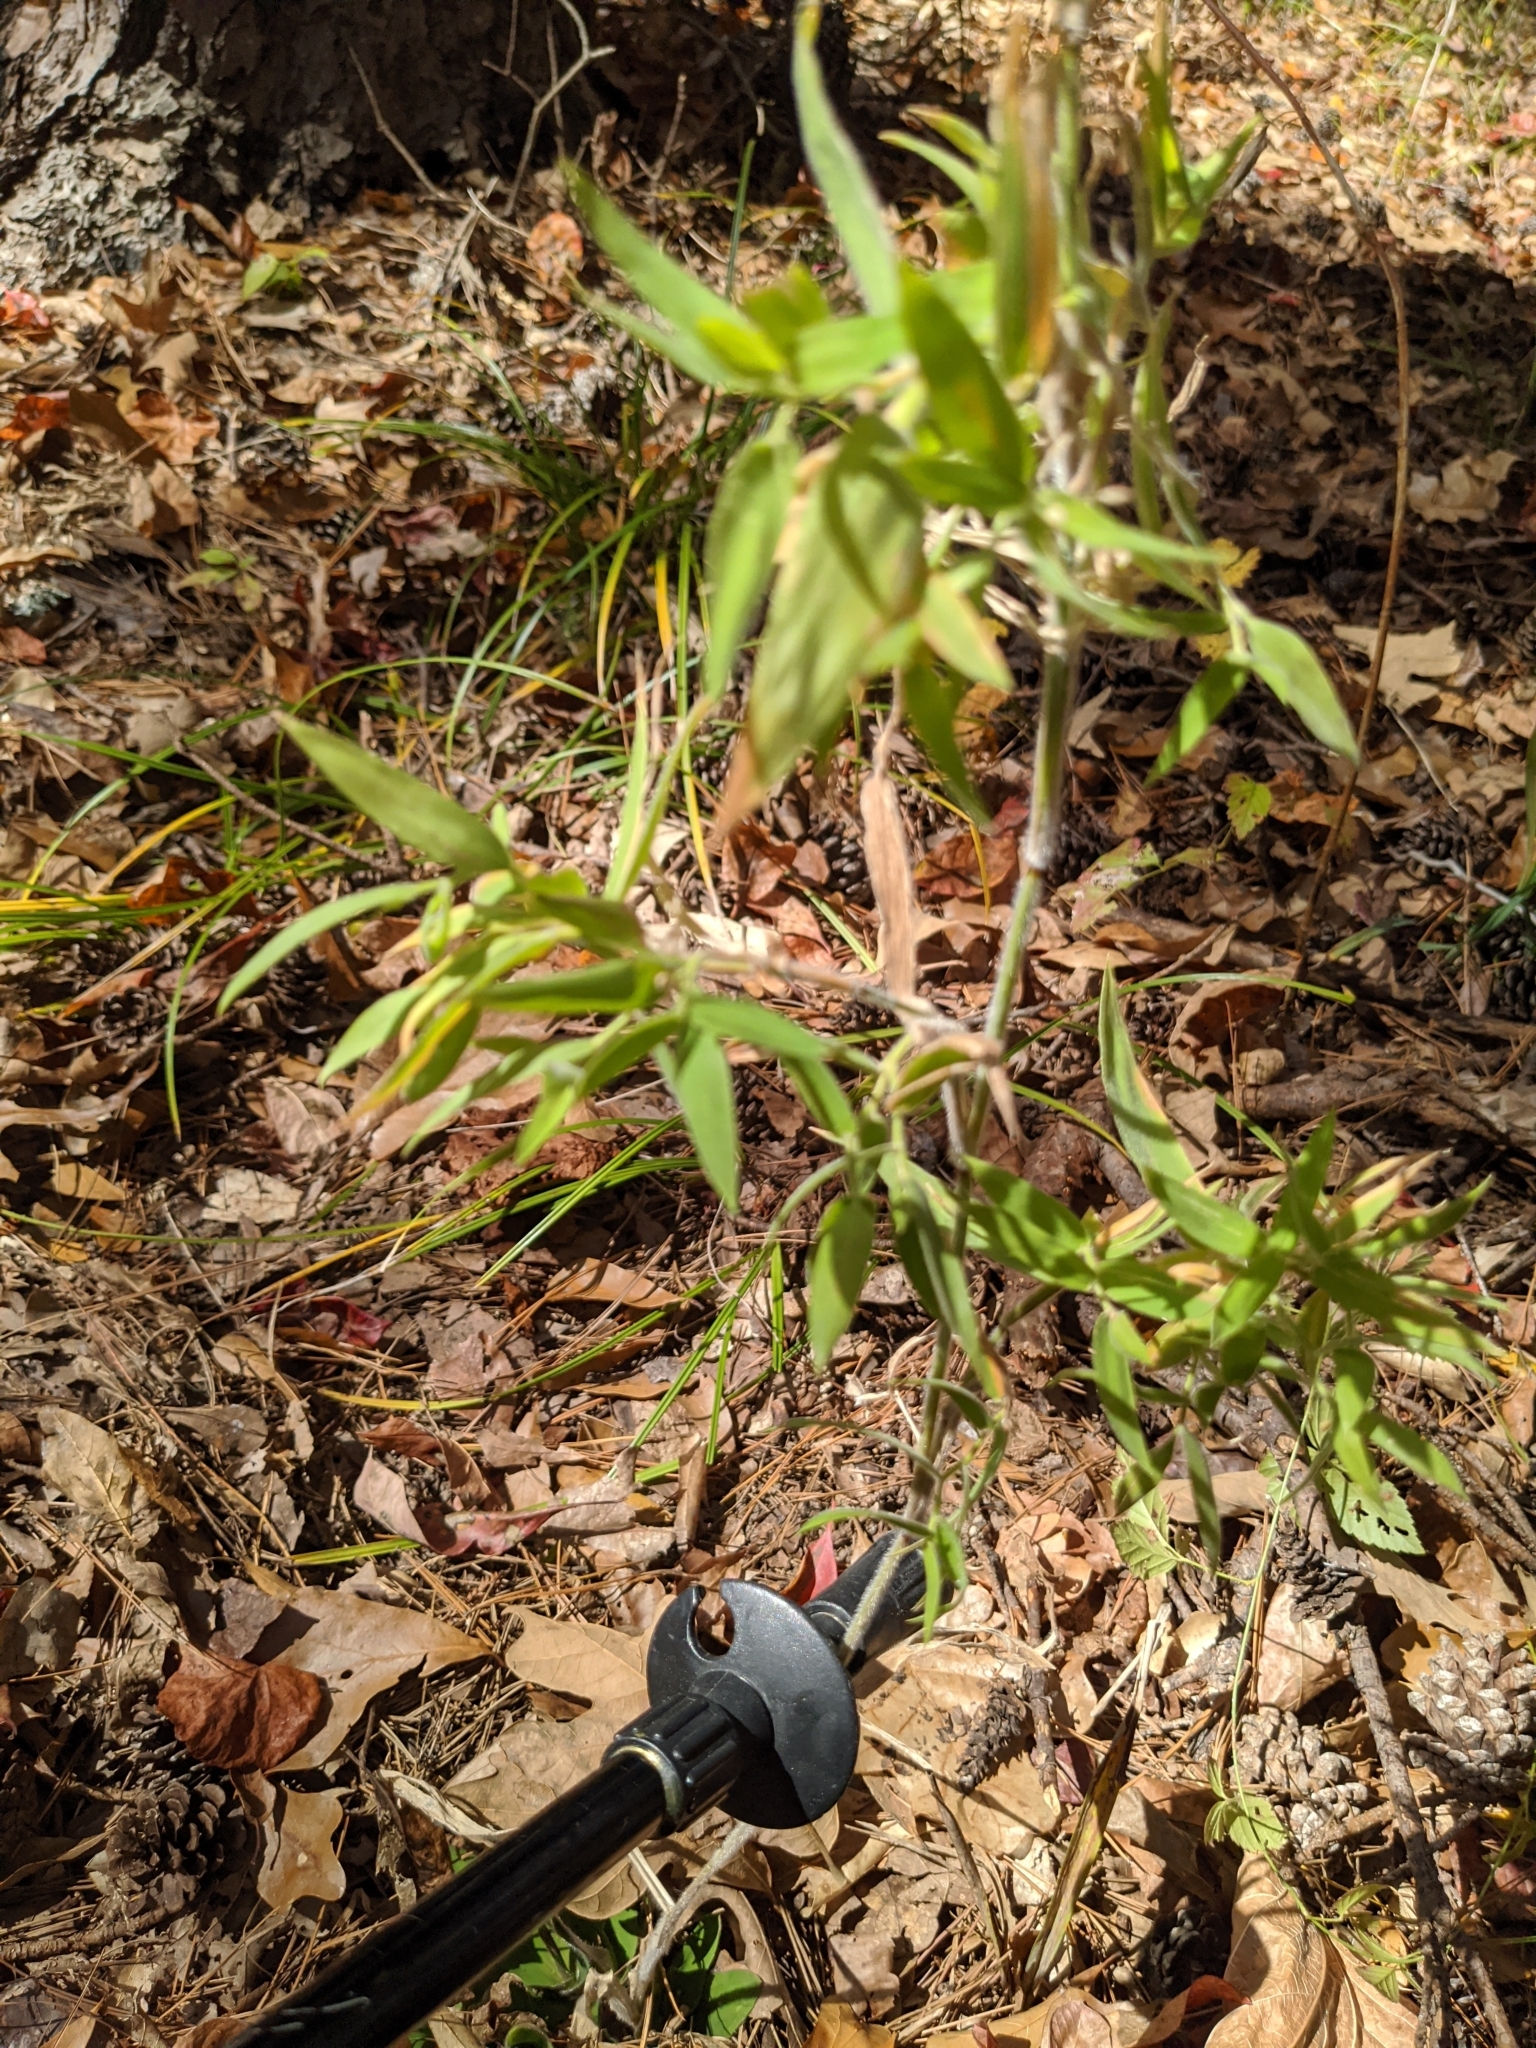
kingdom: Plantae
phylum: Tracheophyta
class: Liliopsida
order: Poales
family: Poaceae
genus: Dichanthelium
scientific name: Dichanthelium scoparium
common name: Velvety panic grass
